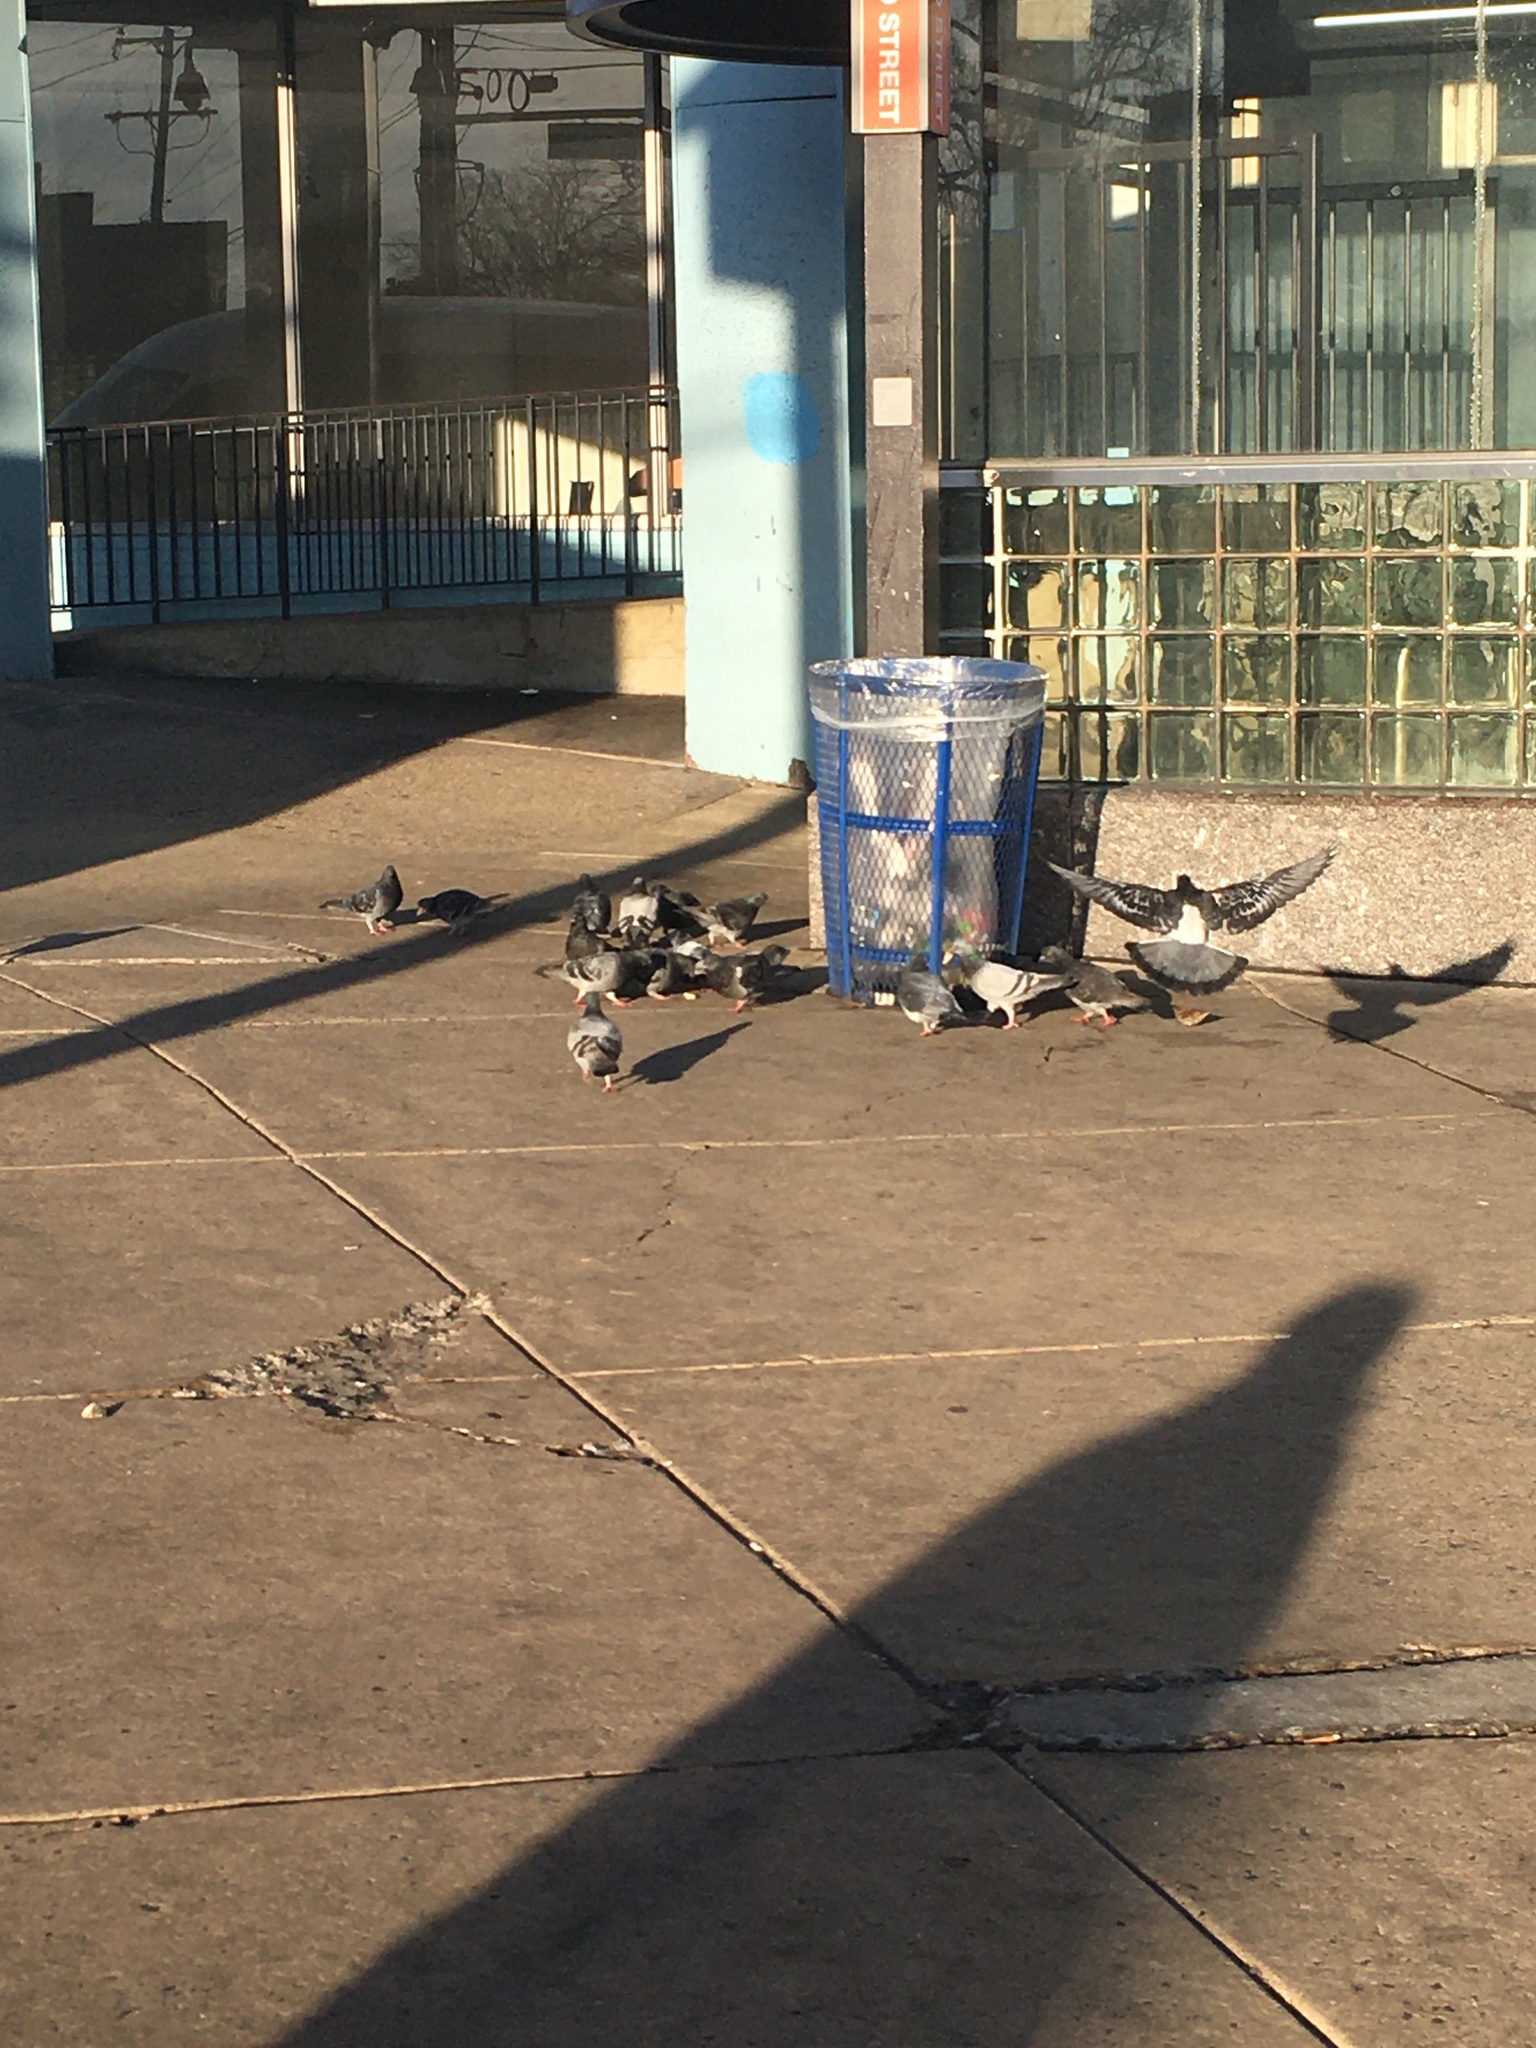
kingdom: Animalia
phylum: Chordata
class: Aves
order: Columbiformes
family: Columbidae
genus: Columba
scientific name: Columba livia
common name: Rock pigeon
